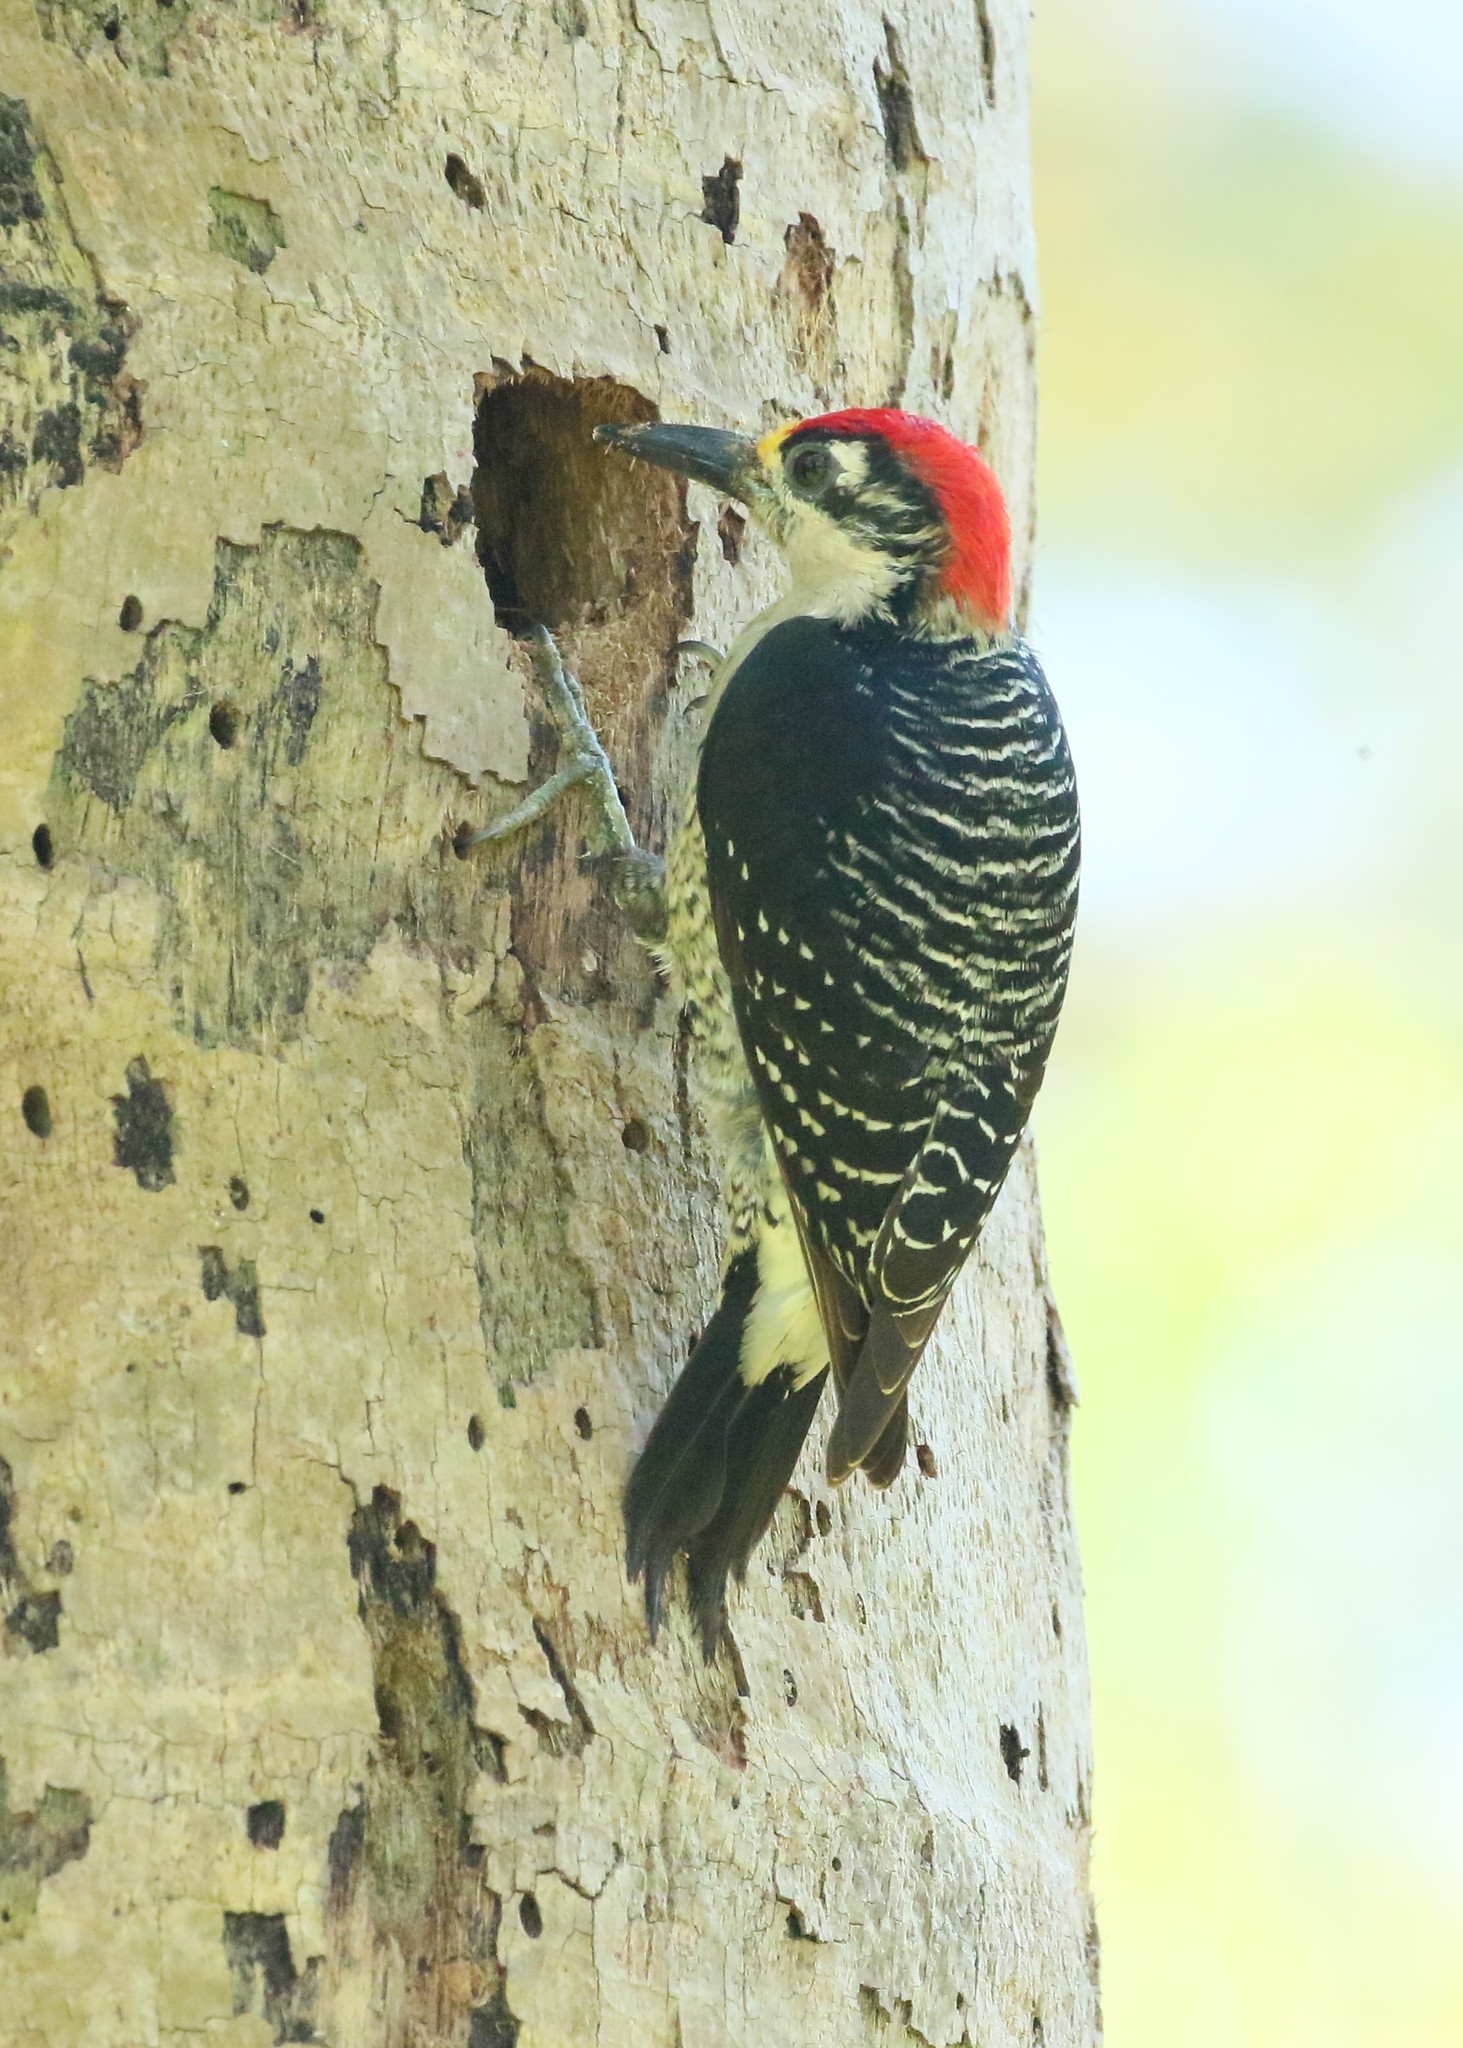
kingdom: Animalia
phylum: Chordata
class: Aves
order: Piciformes
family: Picidae
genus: Melanerpes
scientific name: Melanerpes pucherani
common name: Black-cheeked woodpecker
